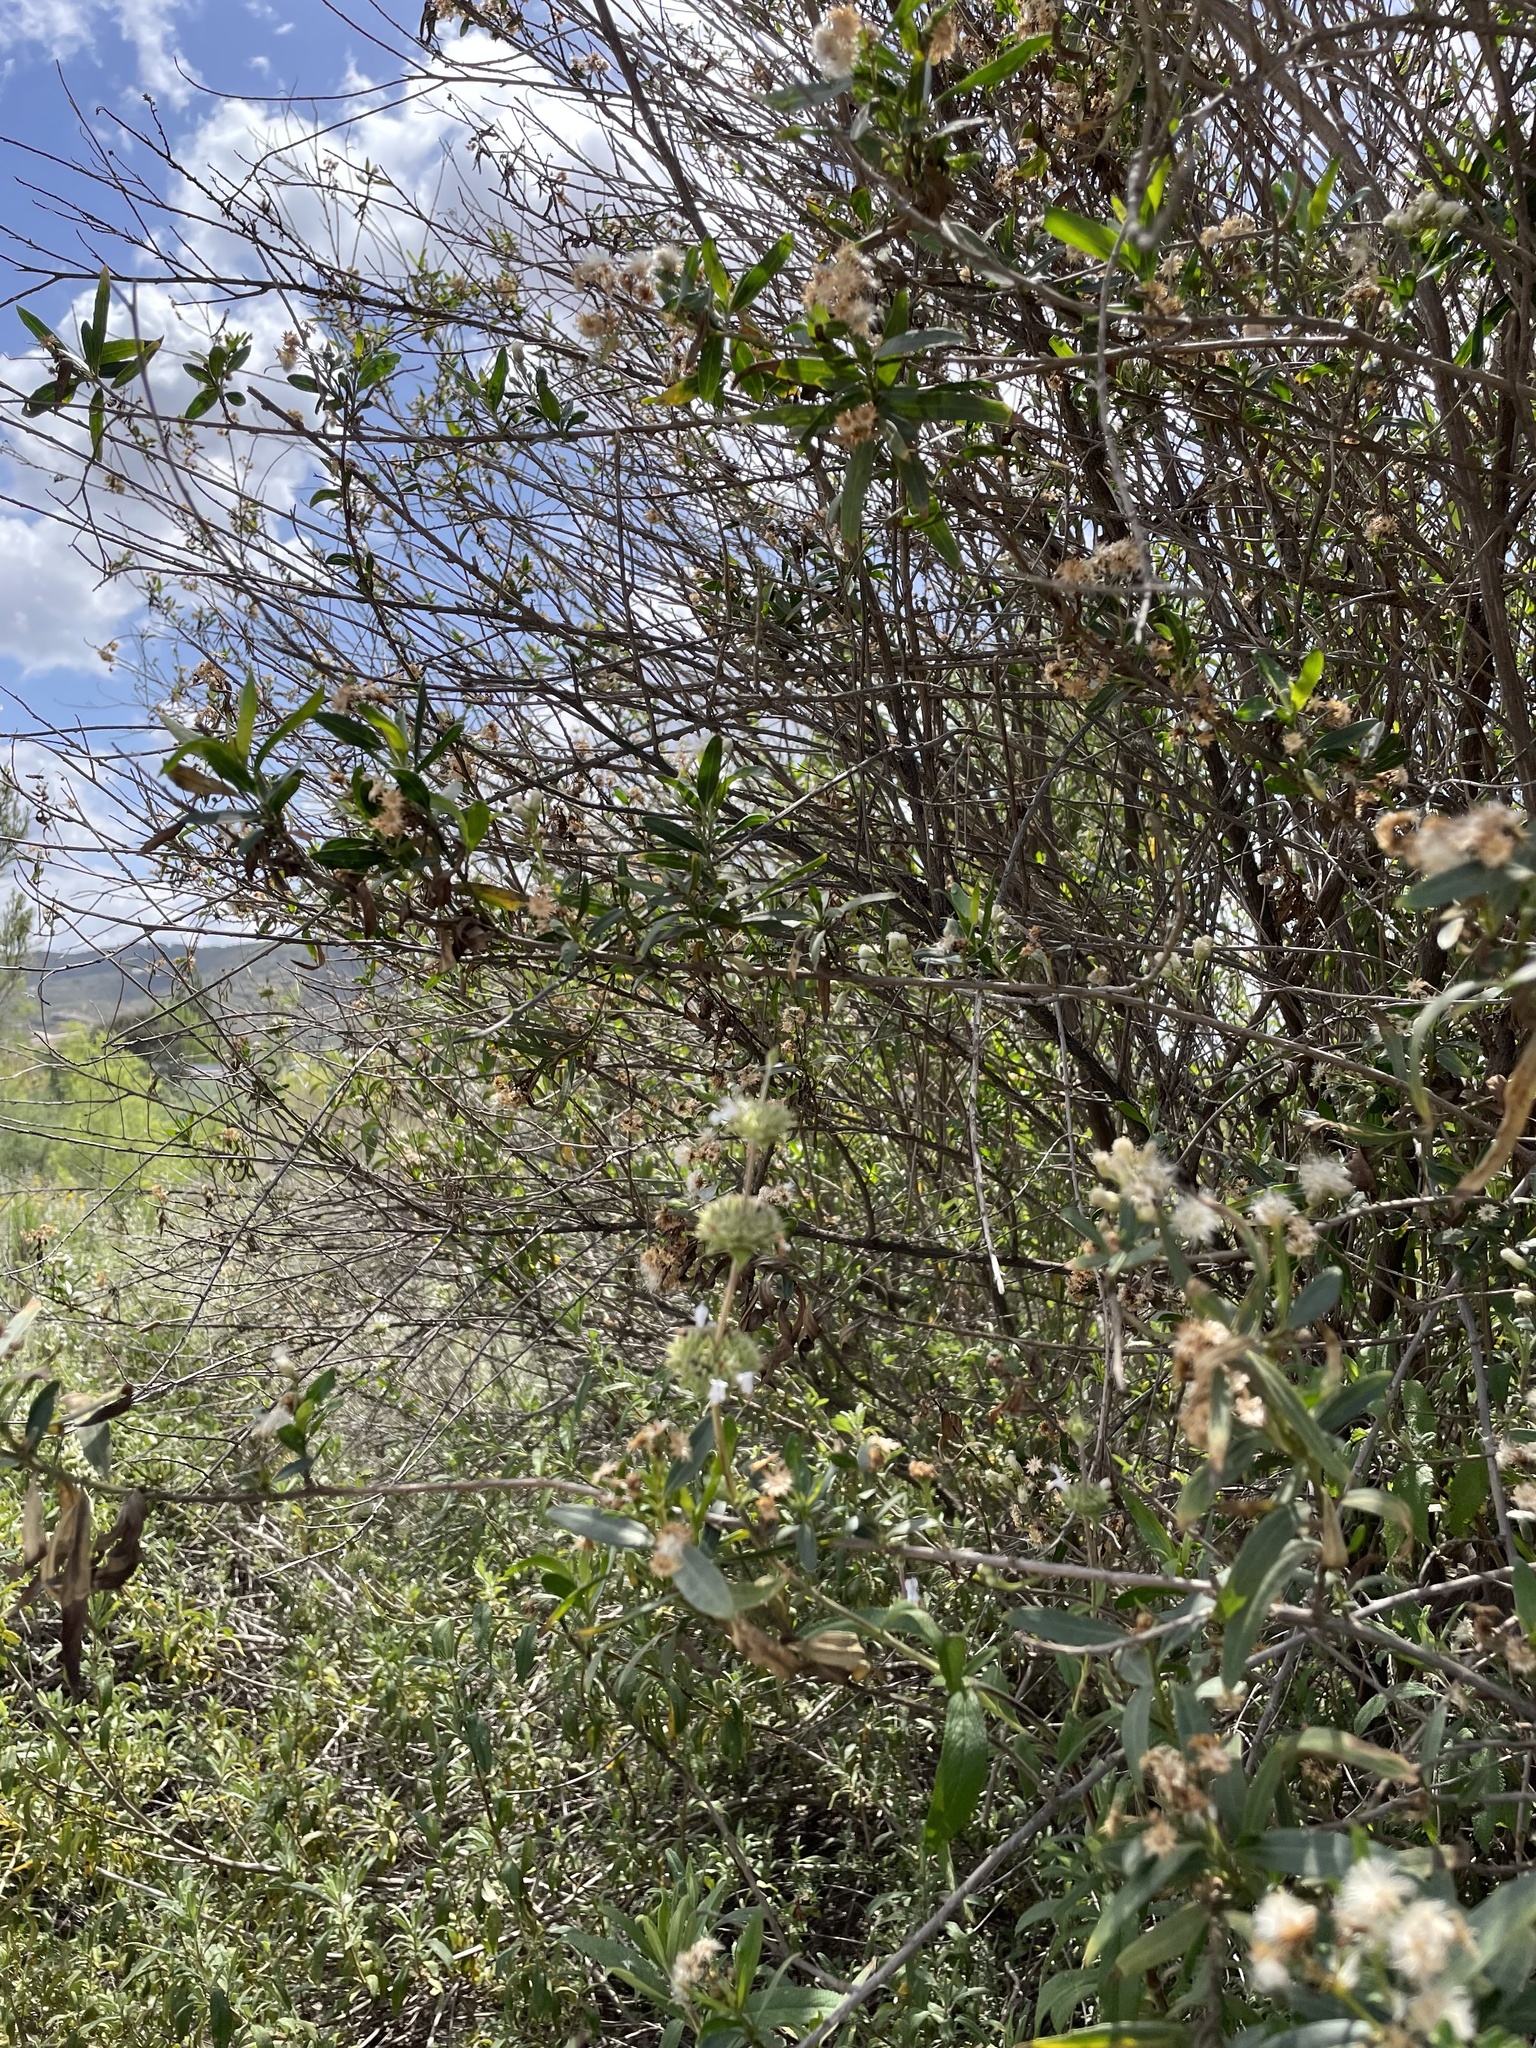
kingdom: Plantae
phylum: Tracheophyta
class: Magnoliopsida
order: Asterales
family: Asteraceae
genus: Baccharis
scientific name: Baccharis salicifolia
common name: Sticky baccharis
